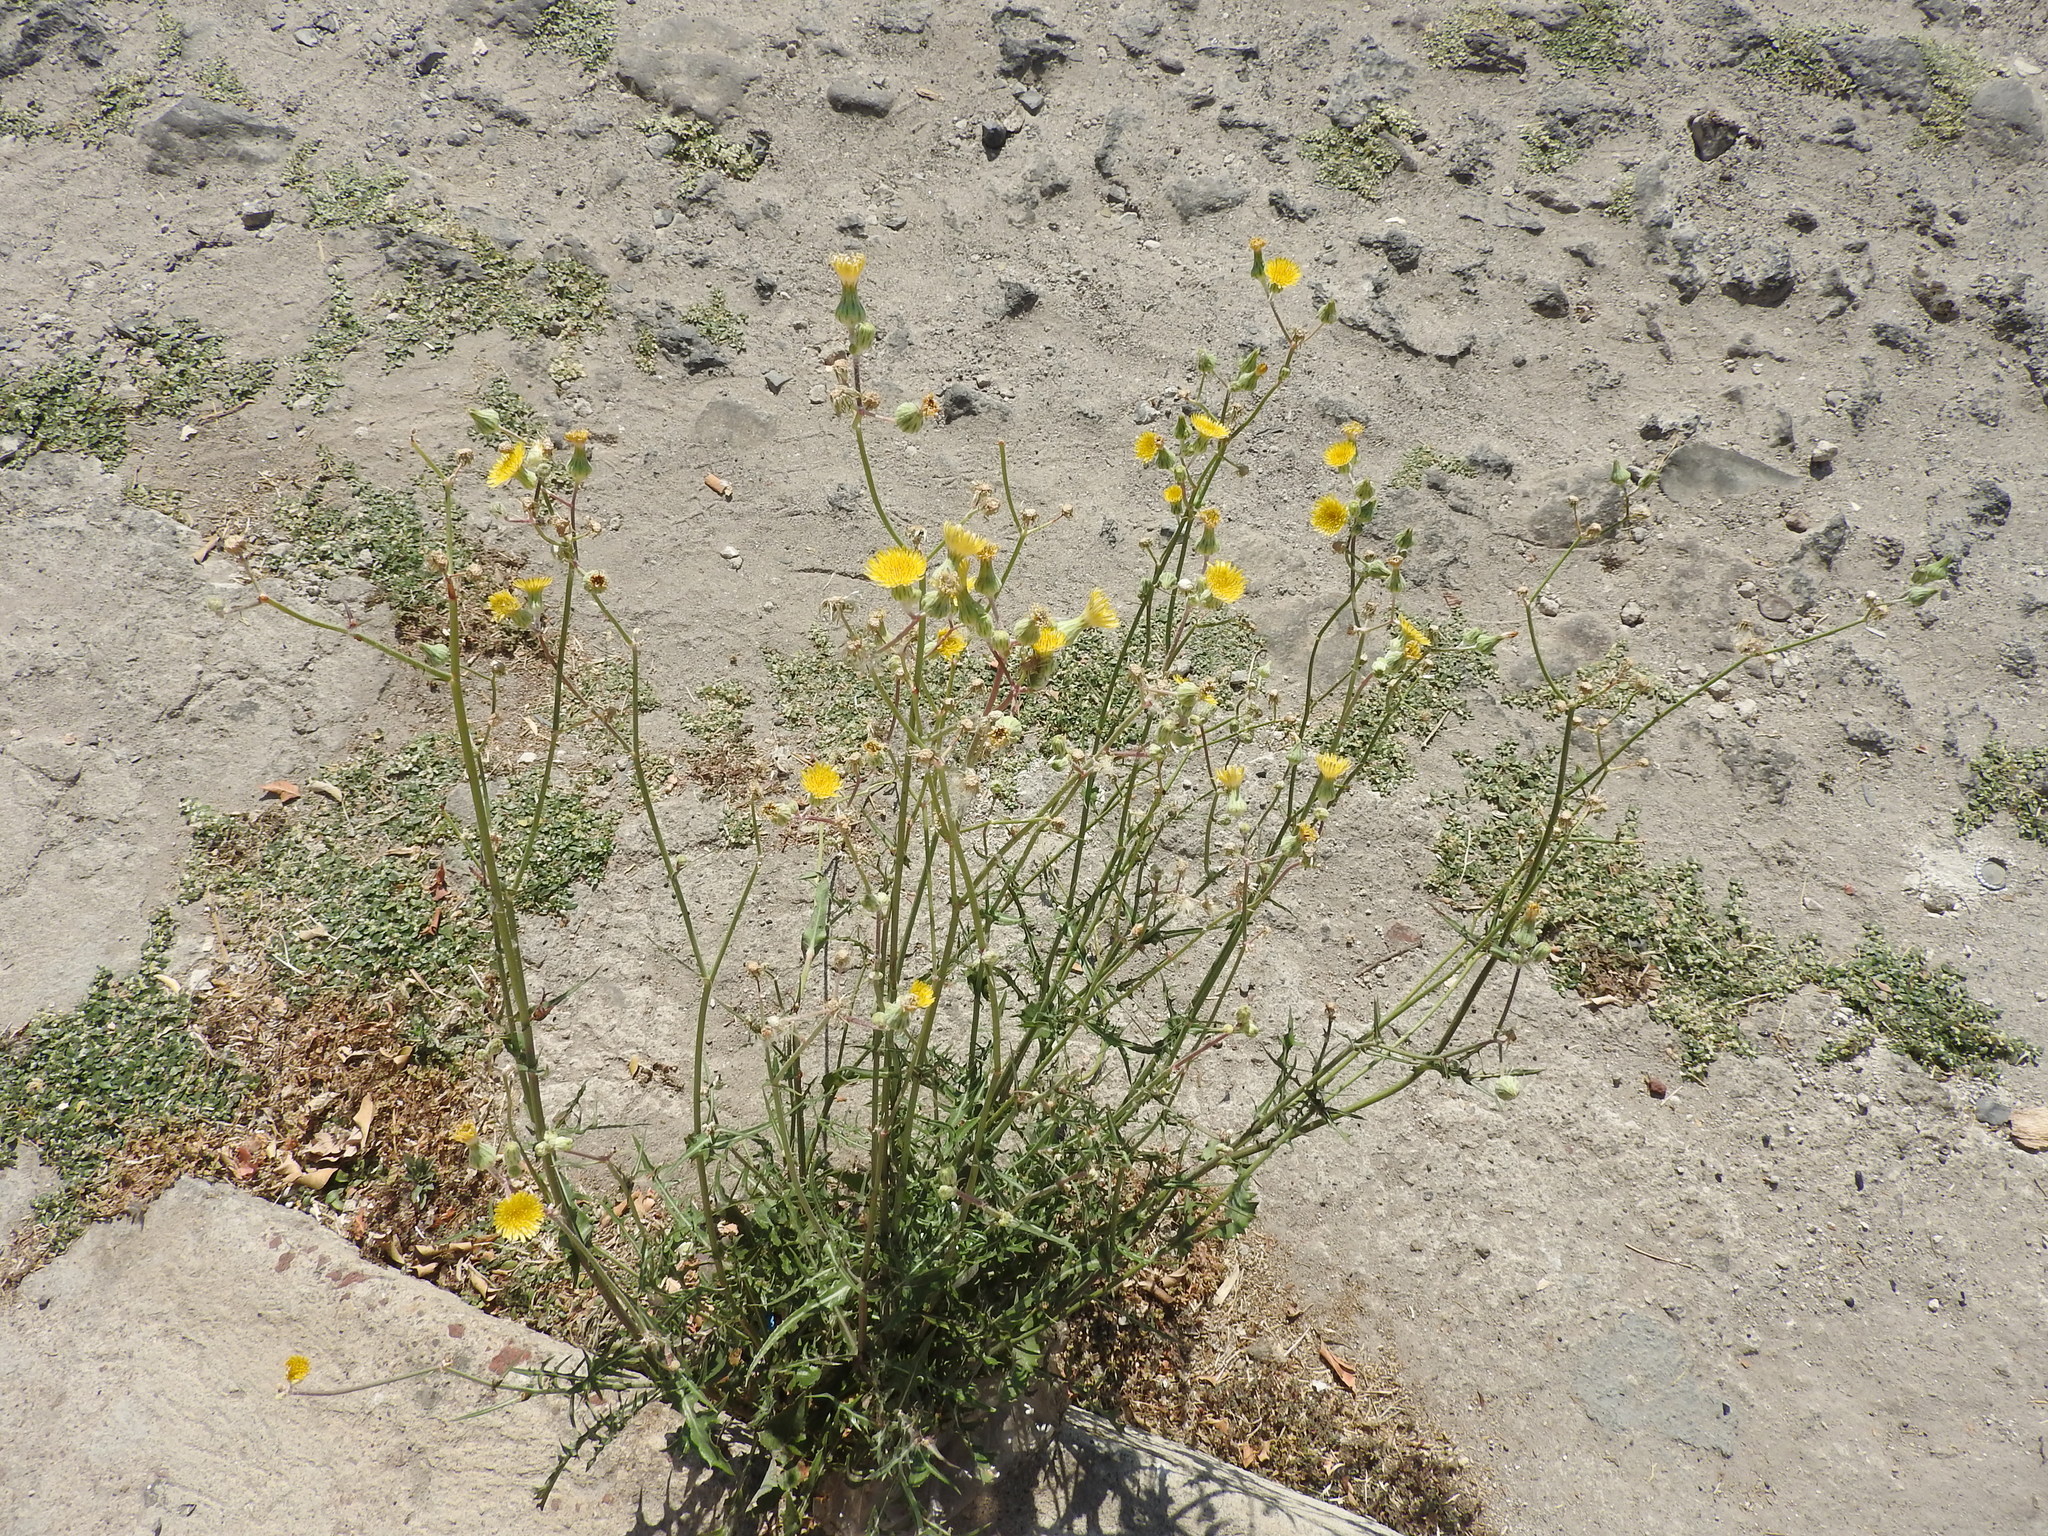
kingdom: Plantae
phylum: Tracheophyta
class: Magnoliopsida
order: Asterales
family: Asteraceae
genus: Sonchus
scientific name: Sonchus oleraceus
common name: Common sowthistle
